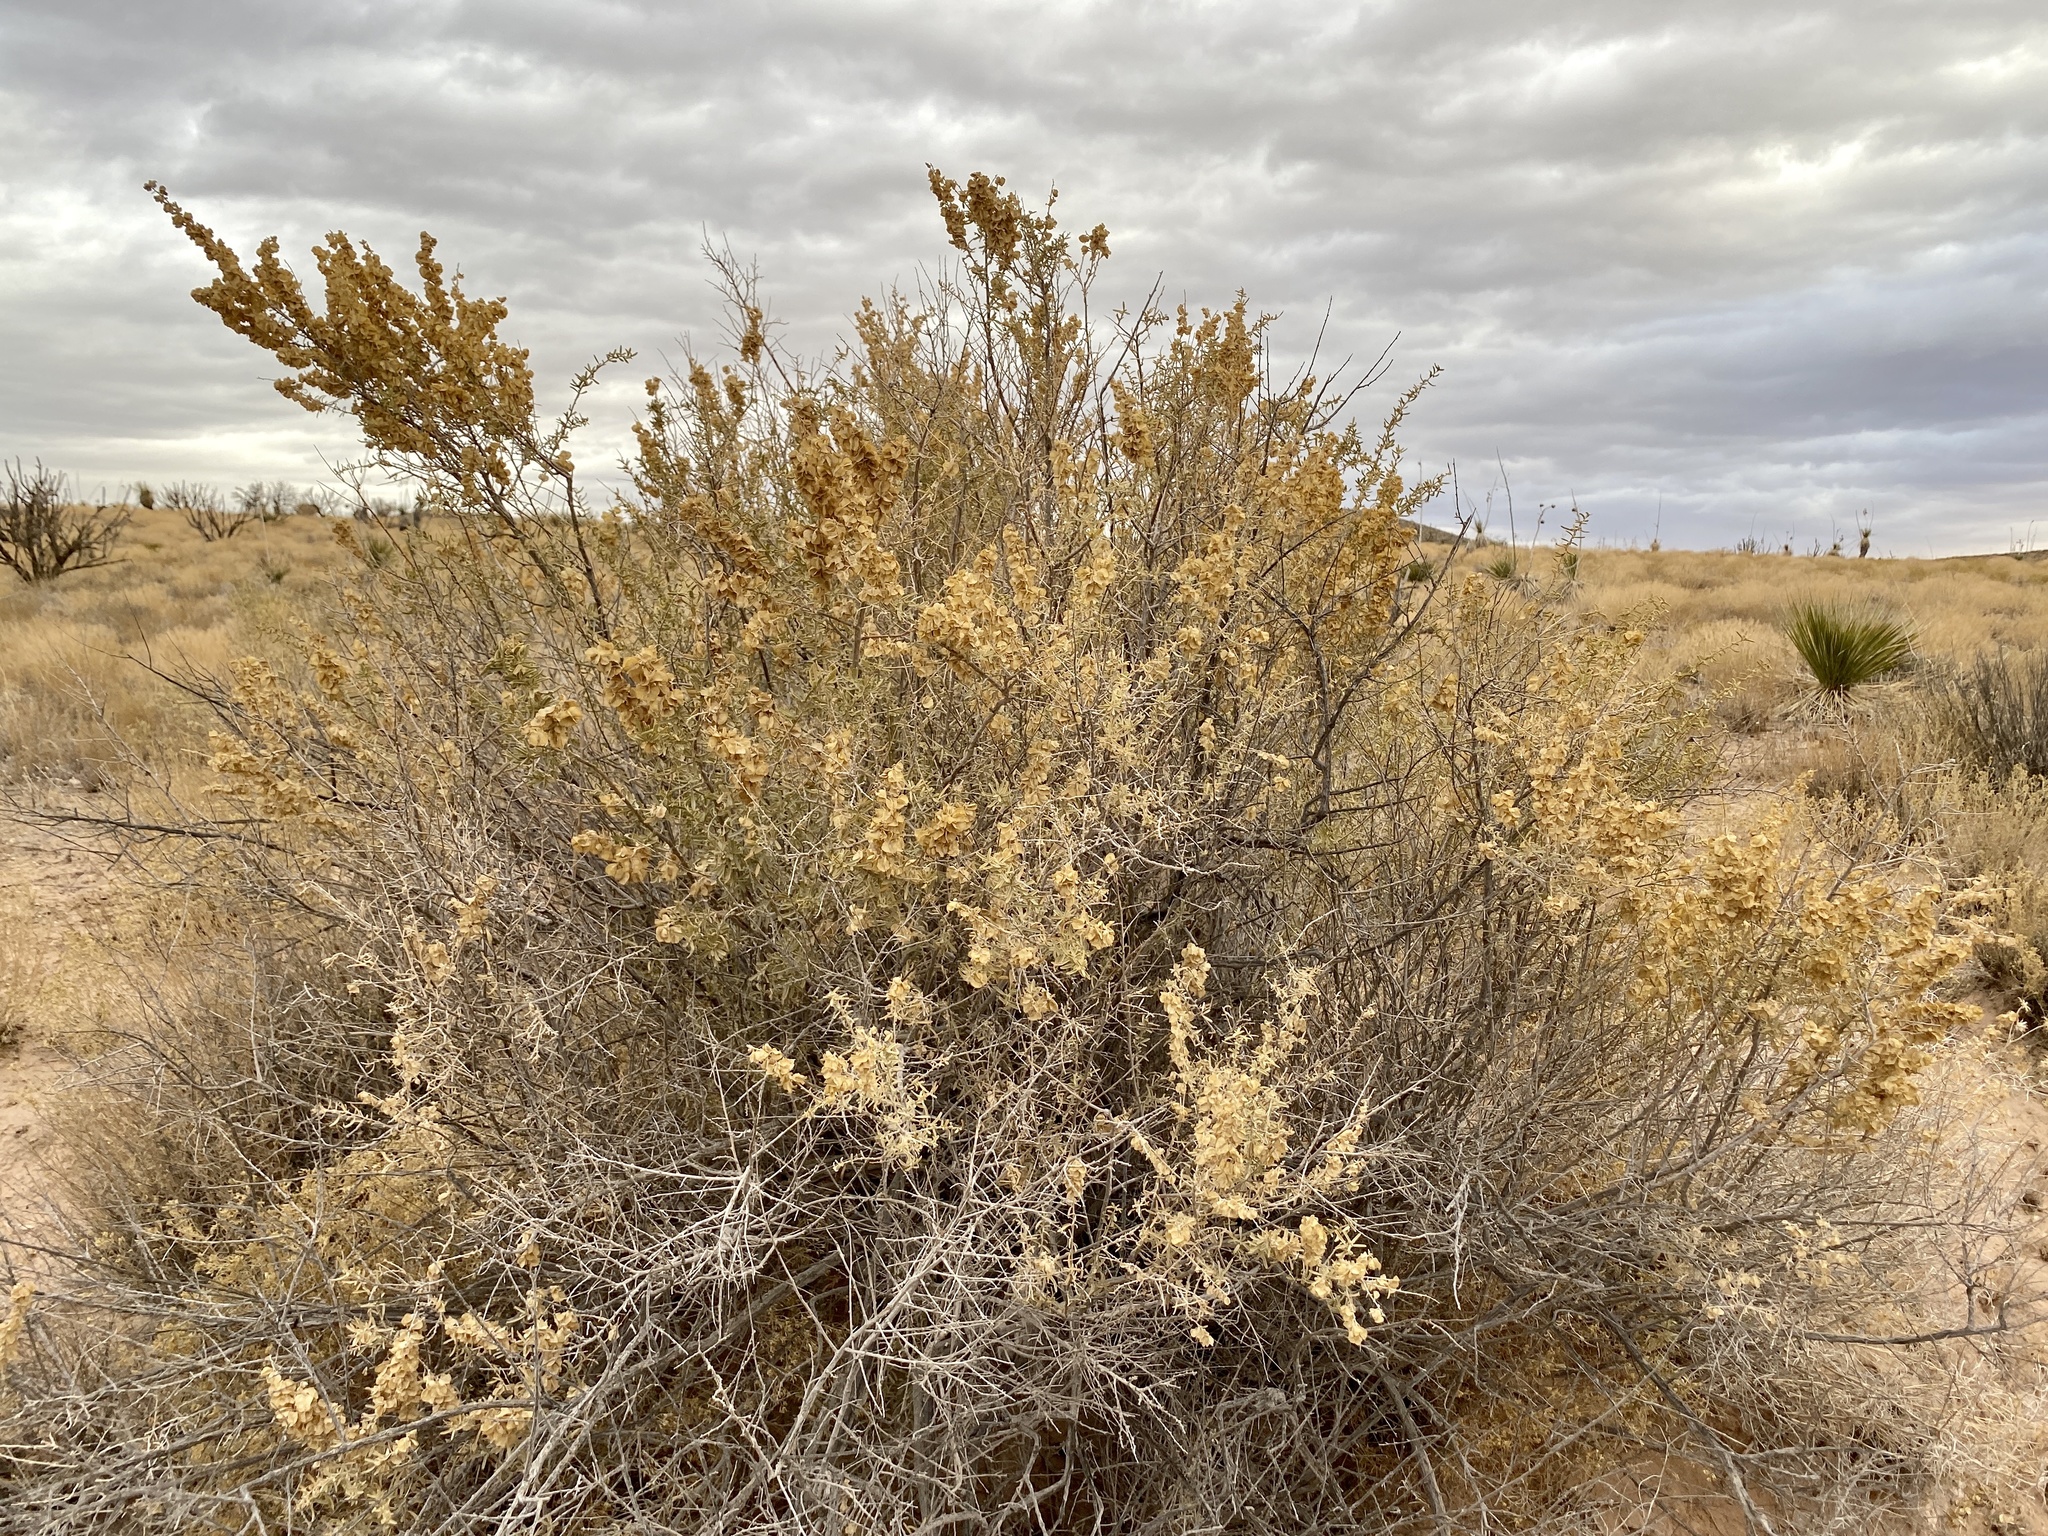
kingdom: Plantae
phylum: Tracheophyta
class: Magnoliopsida
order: Caryophyllales
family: Amaranthaceae
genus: Atriplex
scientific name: Atriplex canescens
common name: Four-wing saltbush
